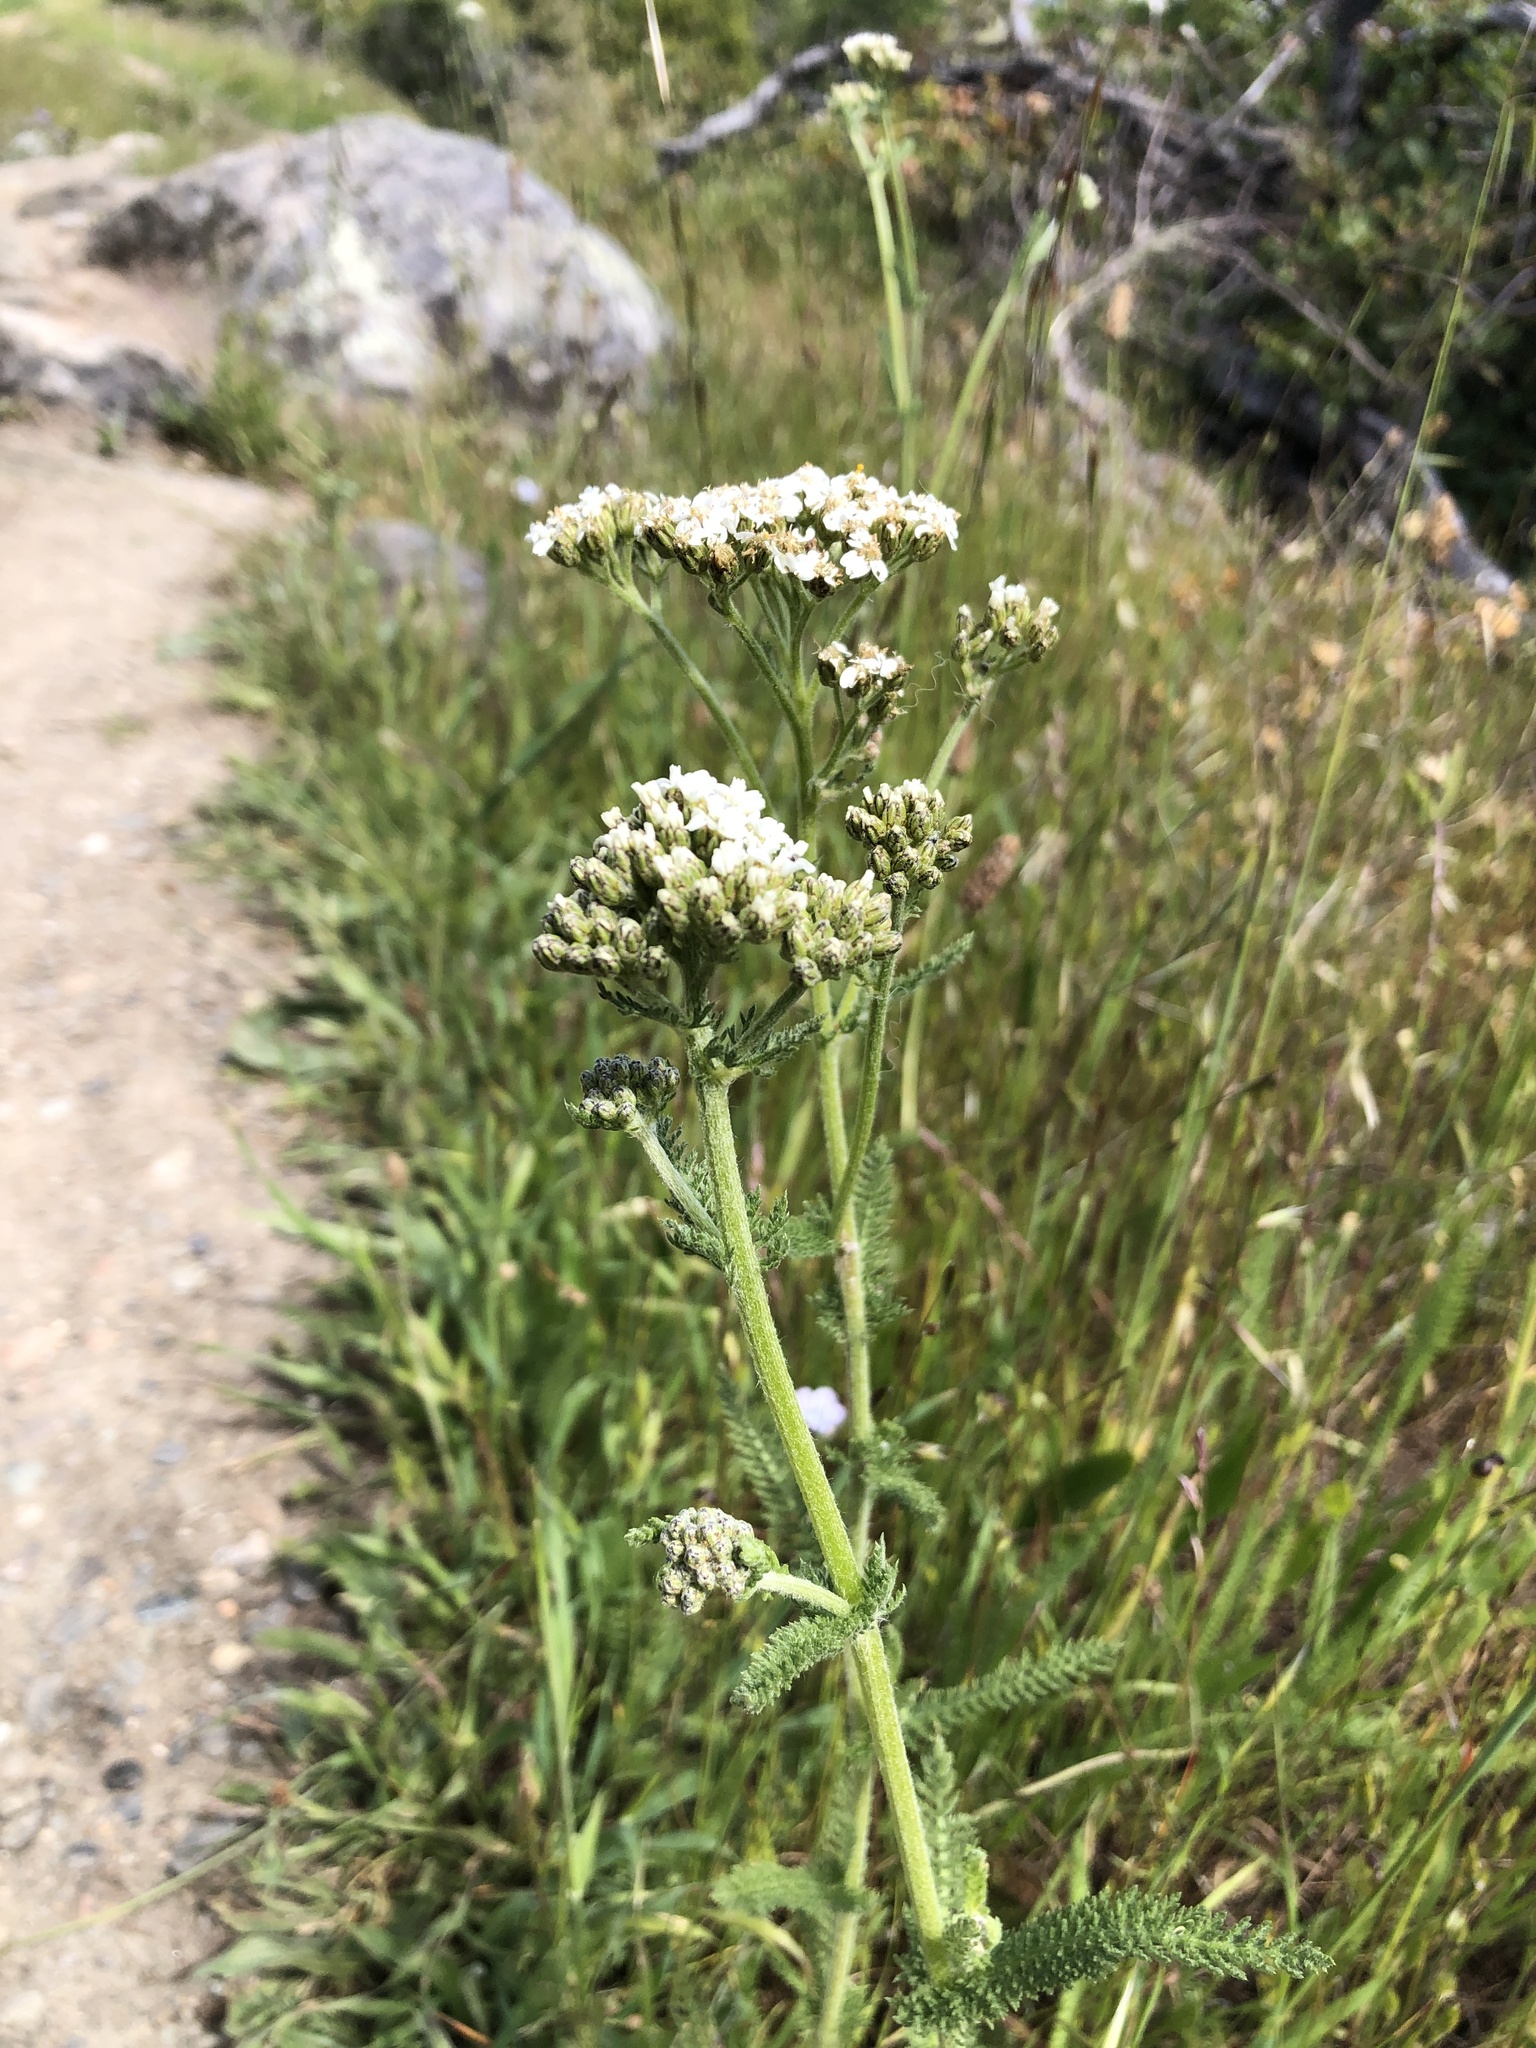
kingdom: Plantae
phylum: Tracheophyta
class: Magnoliopsida
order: Asterales
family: Asteraceae
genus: Achillea
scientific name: Achillea millefolium
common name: Yarrow
